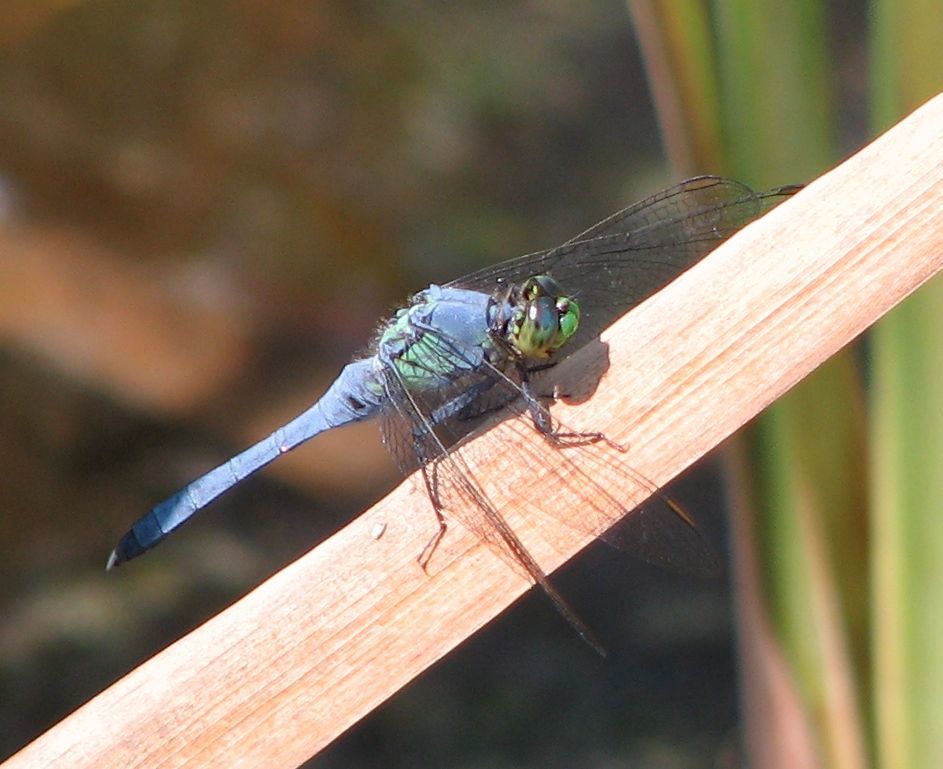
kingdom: Animalia
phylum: Arthropoda
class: Insecta
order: Odonata
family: Libellulidae
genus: Erythemis
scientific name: Erythemis simplicicollis
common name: Eastern pondhawk
